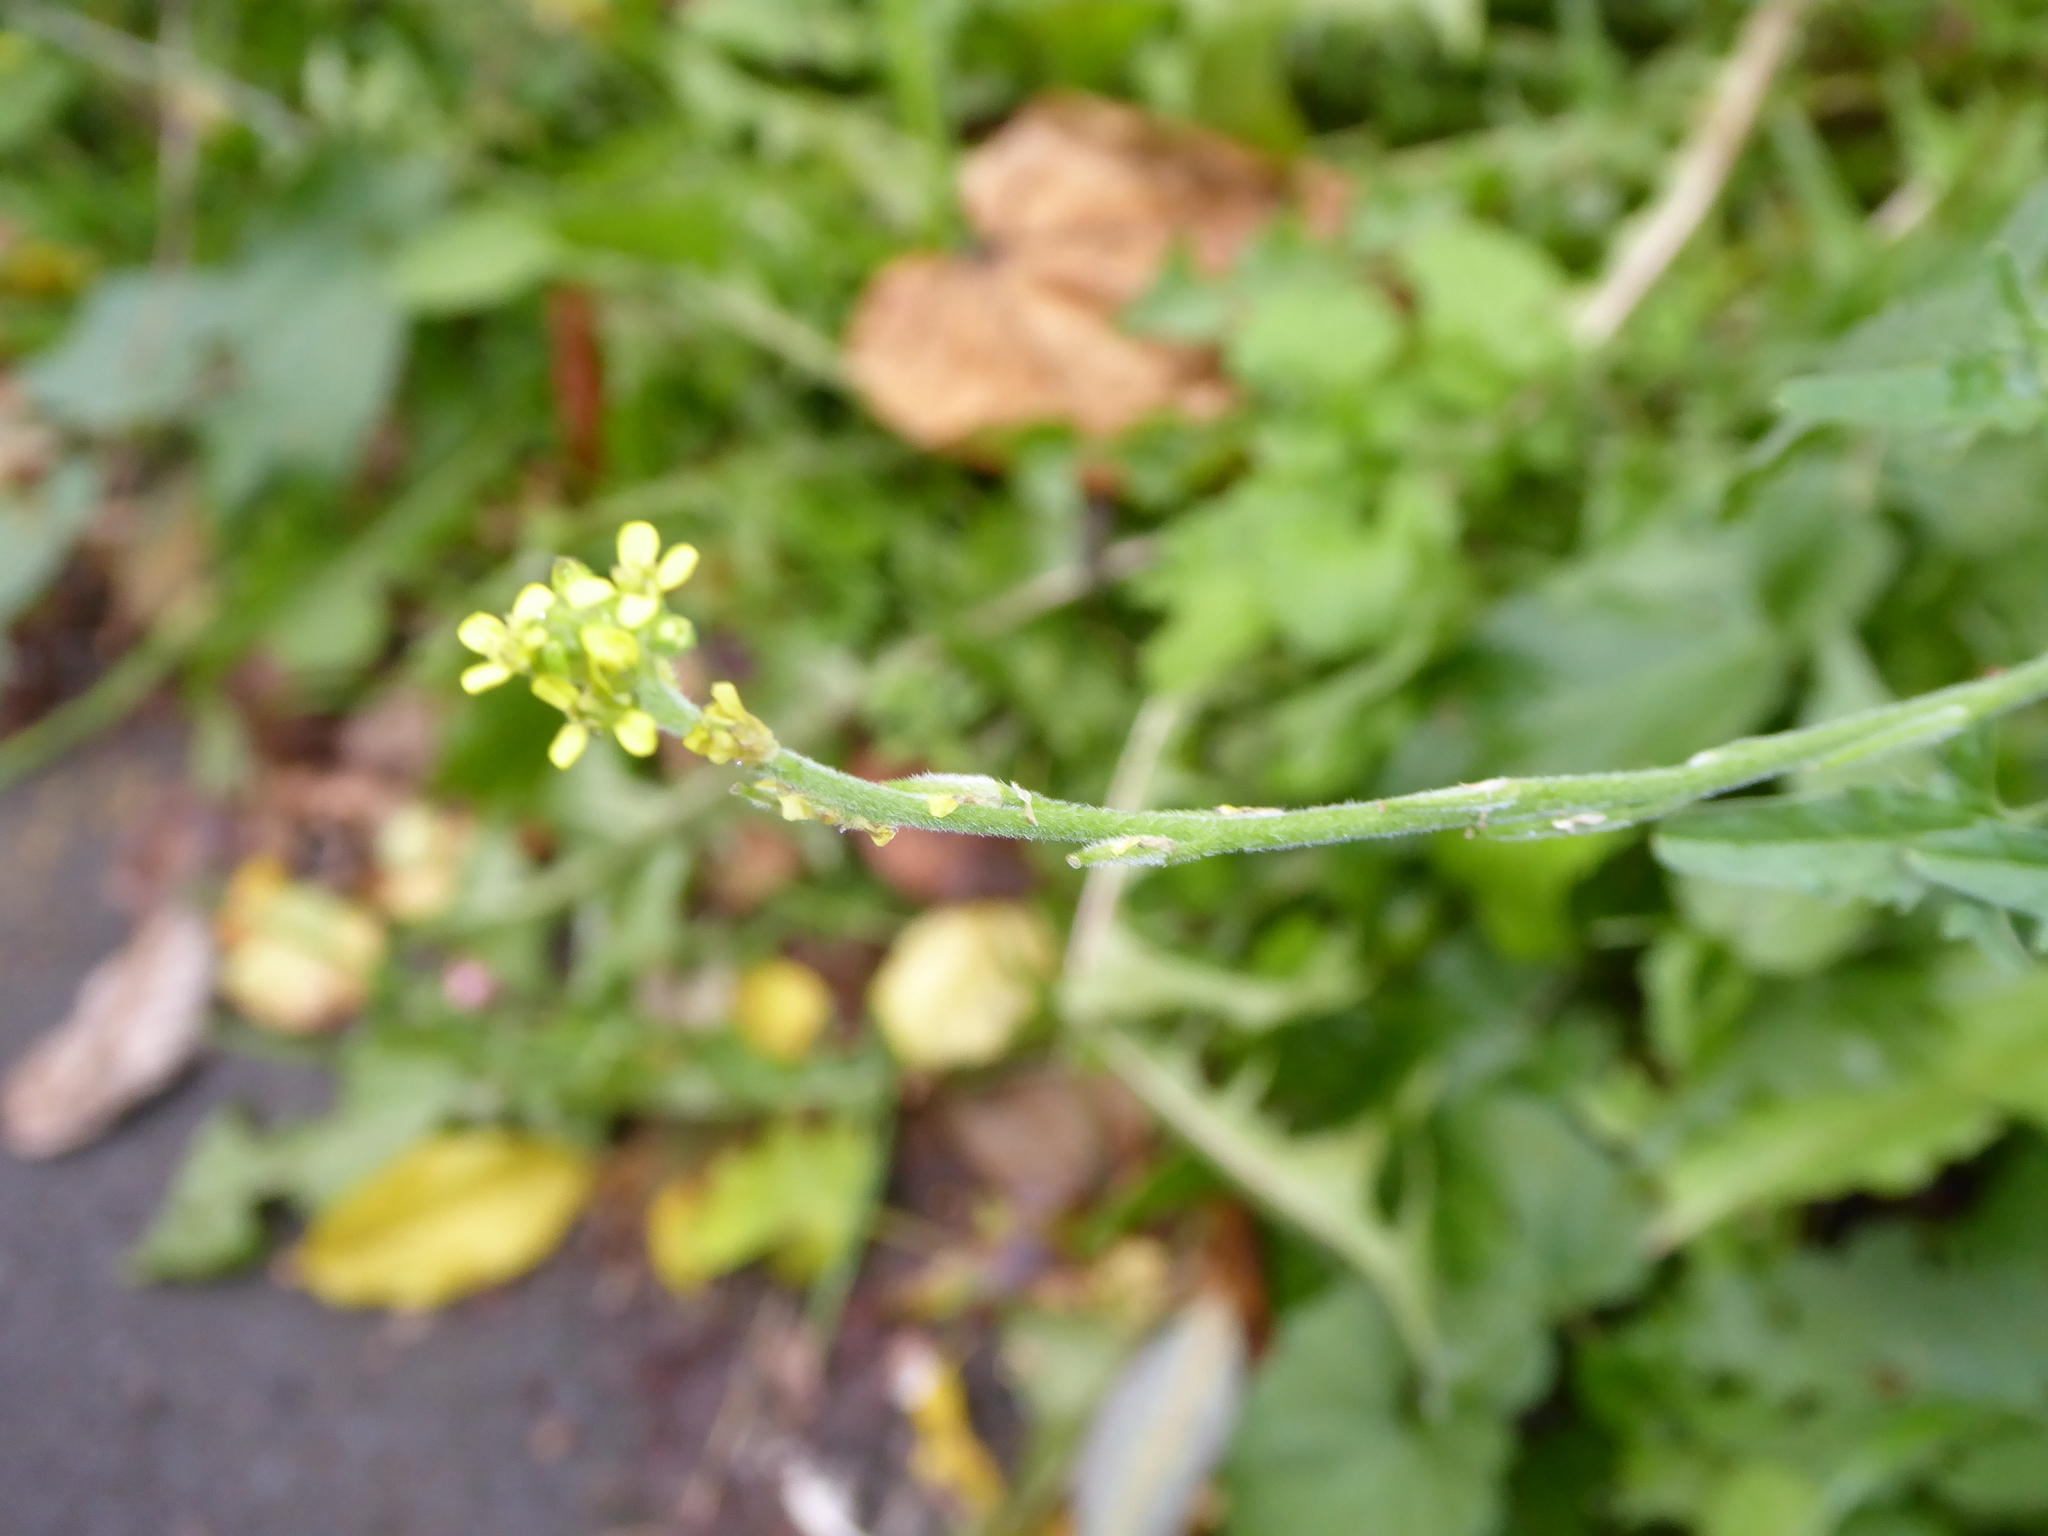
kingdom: Plantae
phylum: Tracheophyta
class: Magnoliopsida
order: Brassicales
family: Brassicaceae
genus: Sisymbrium
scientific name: Sisymbrium officinale
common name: Hedge mustard
